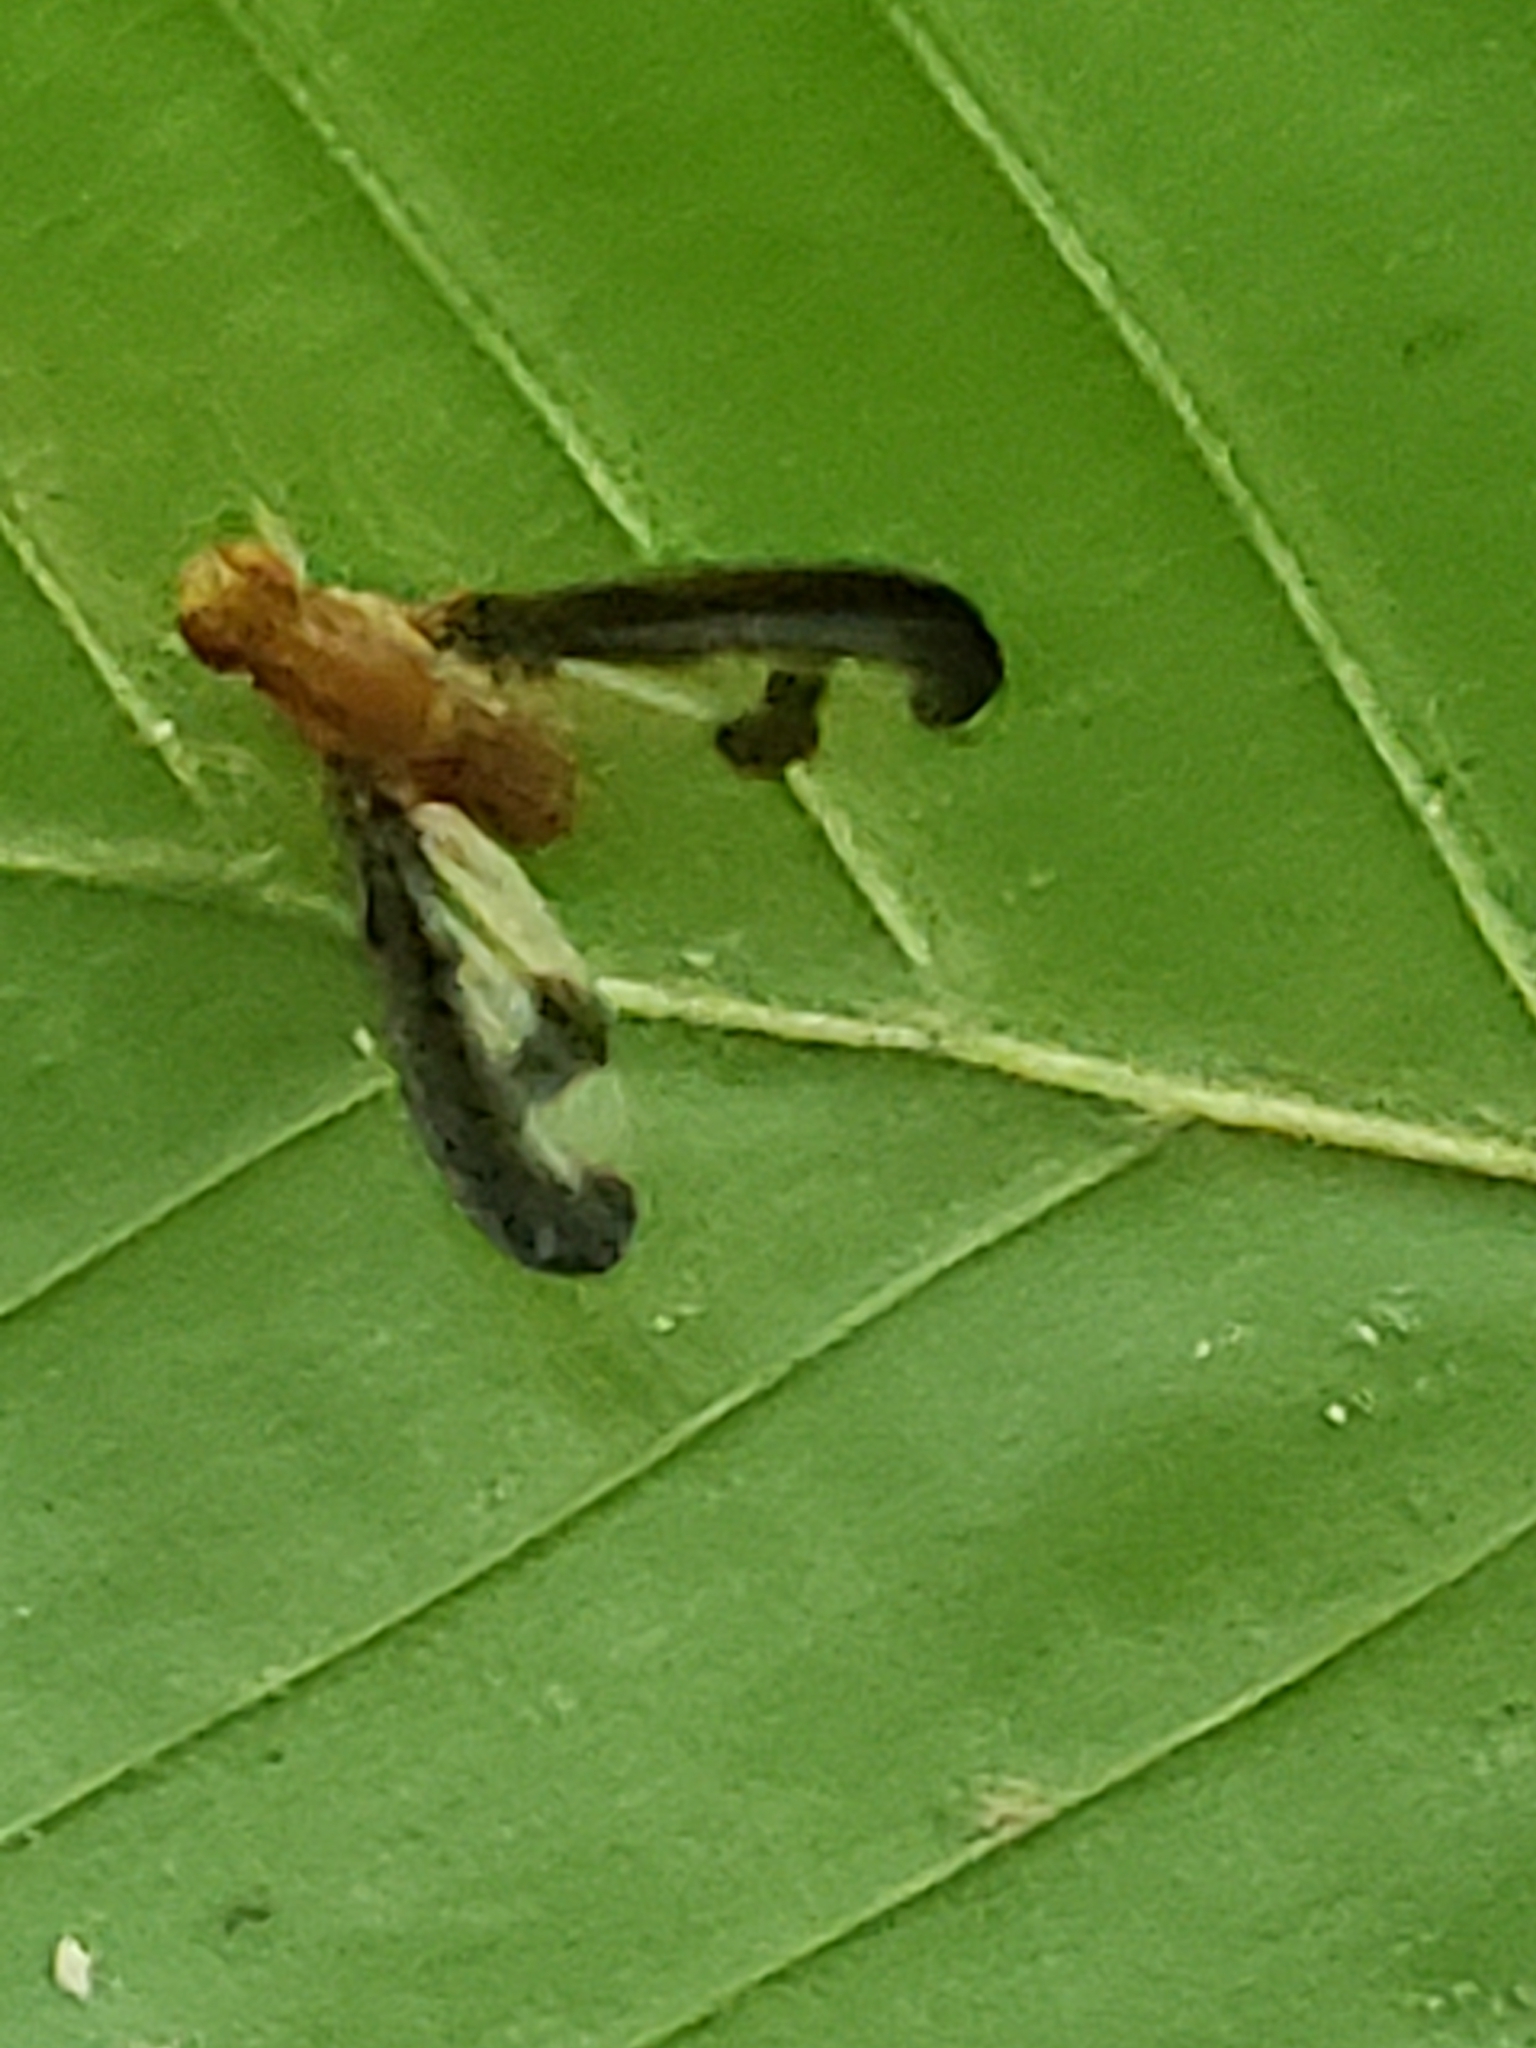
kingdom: Animalia
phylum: Arthropoda
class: Insecta
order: Diptera
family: Pallopteridae
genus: Toxonevra
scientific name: Toxonevra superba
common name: Antlered flutter fly
